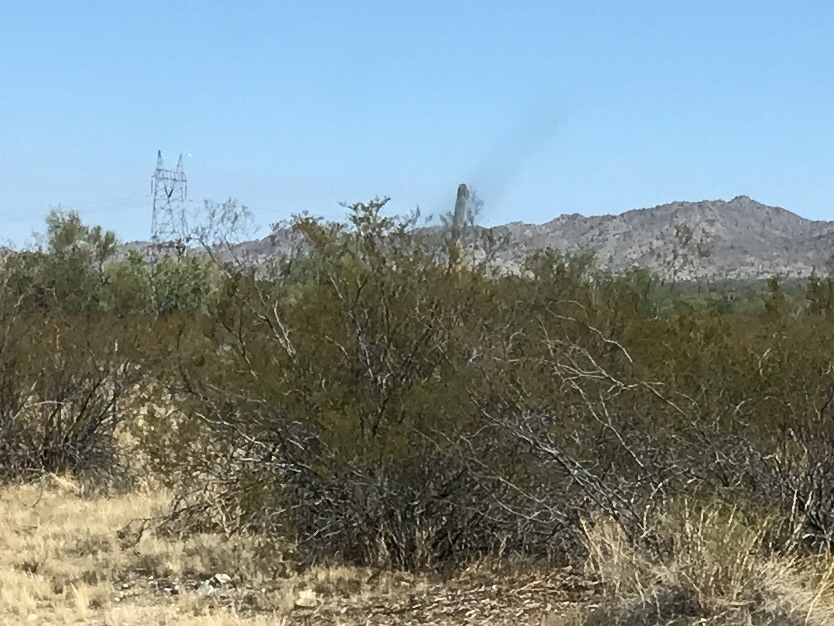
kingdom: Plantae
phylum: Tracheophyta
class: Magnoliopsida
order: Zygophyllales
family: Zygophyllaceae
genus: Larrea
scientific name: Larrea tridentata
